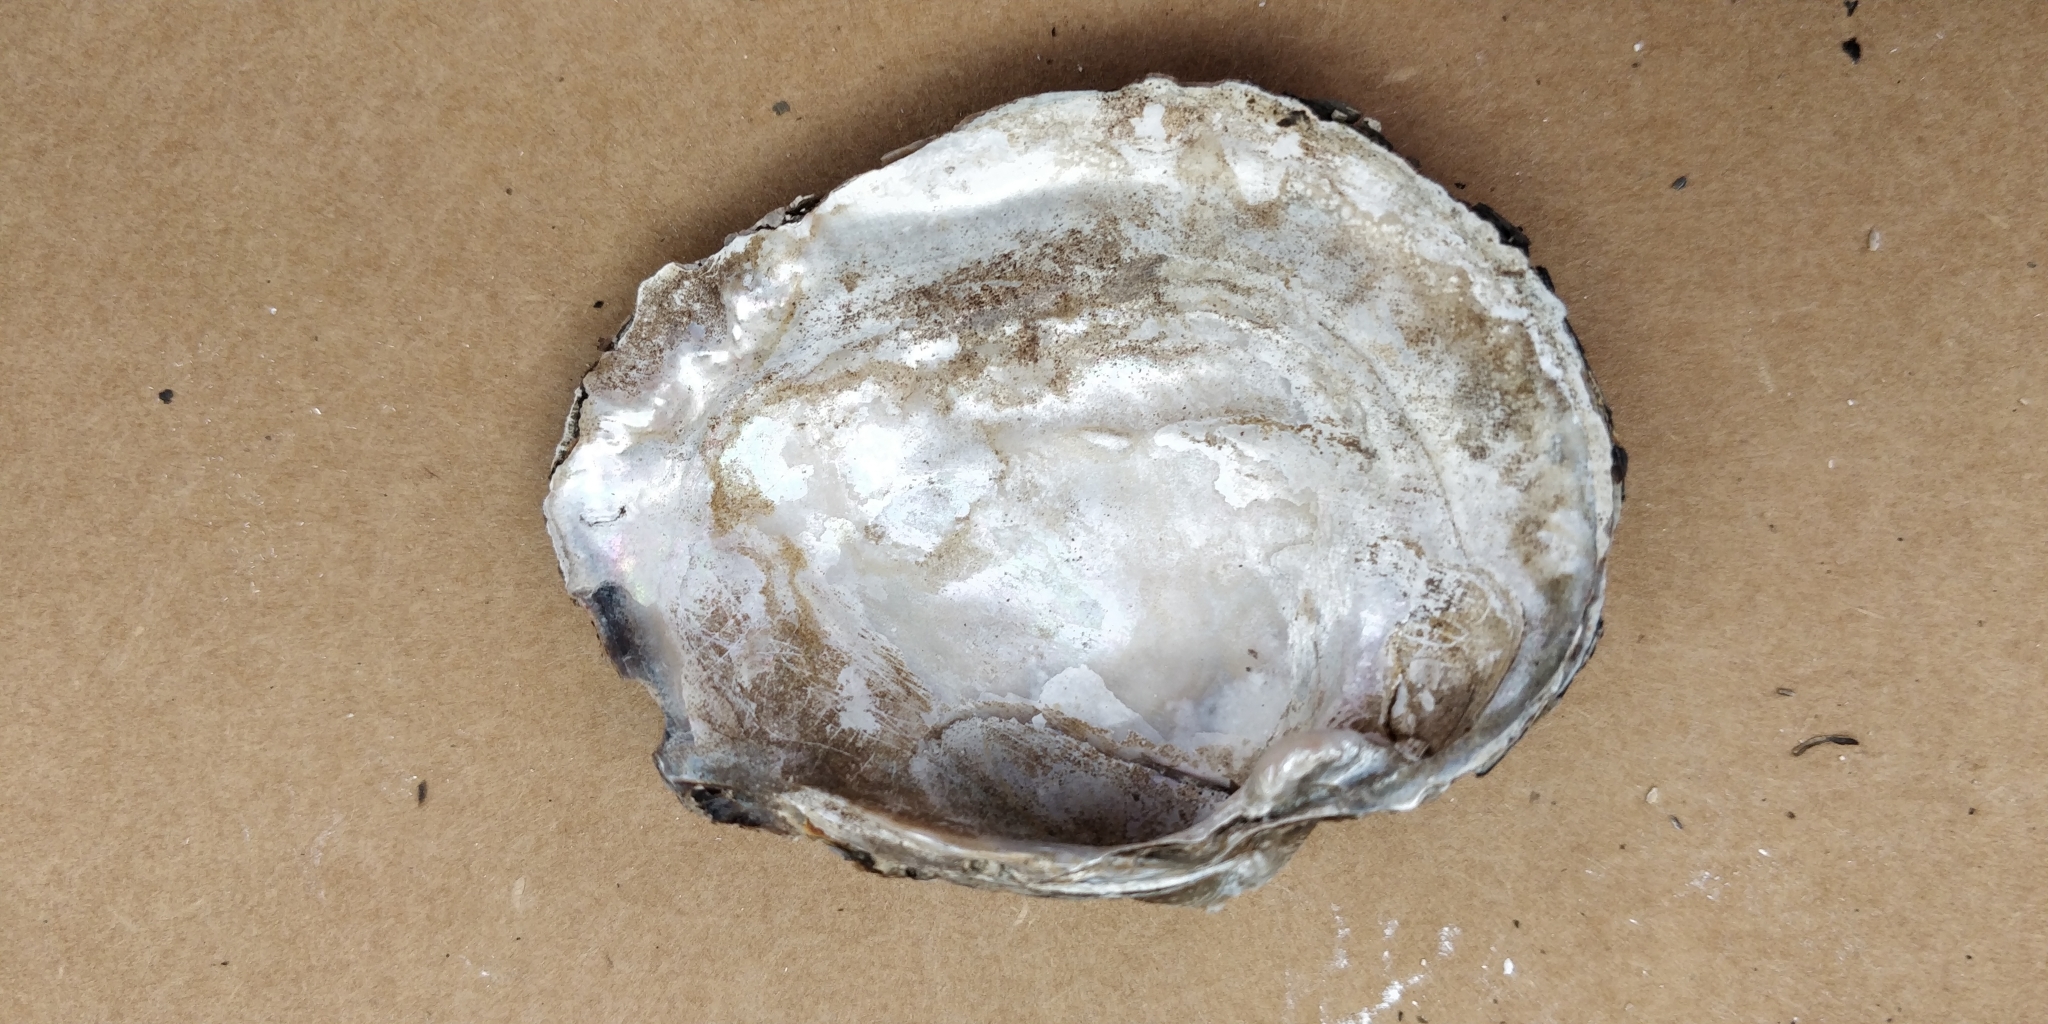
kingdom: Animalia
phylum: Mollusca
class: Bivalvia
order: Unionida
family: Unionidae
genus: Arcidens
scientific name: Arcidens confragosus
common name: Rock pocketbook
